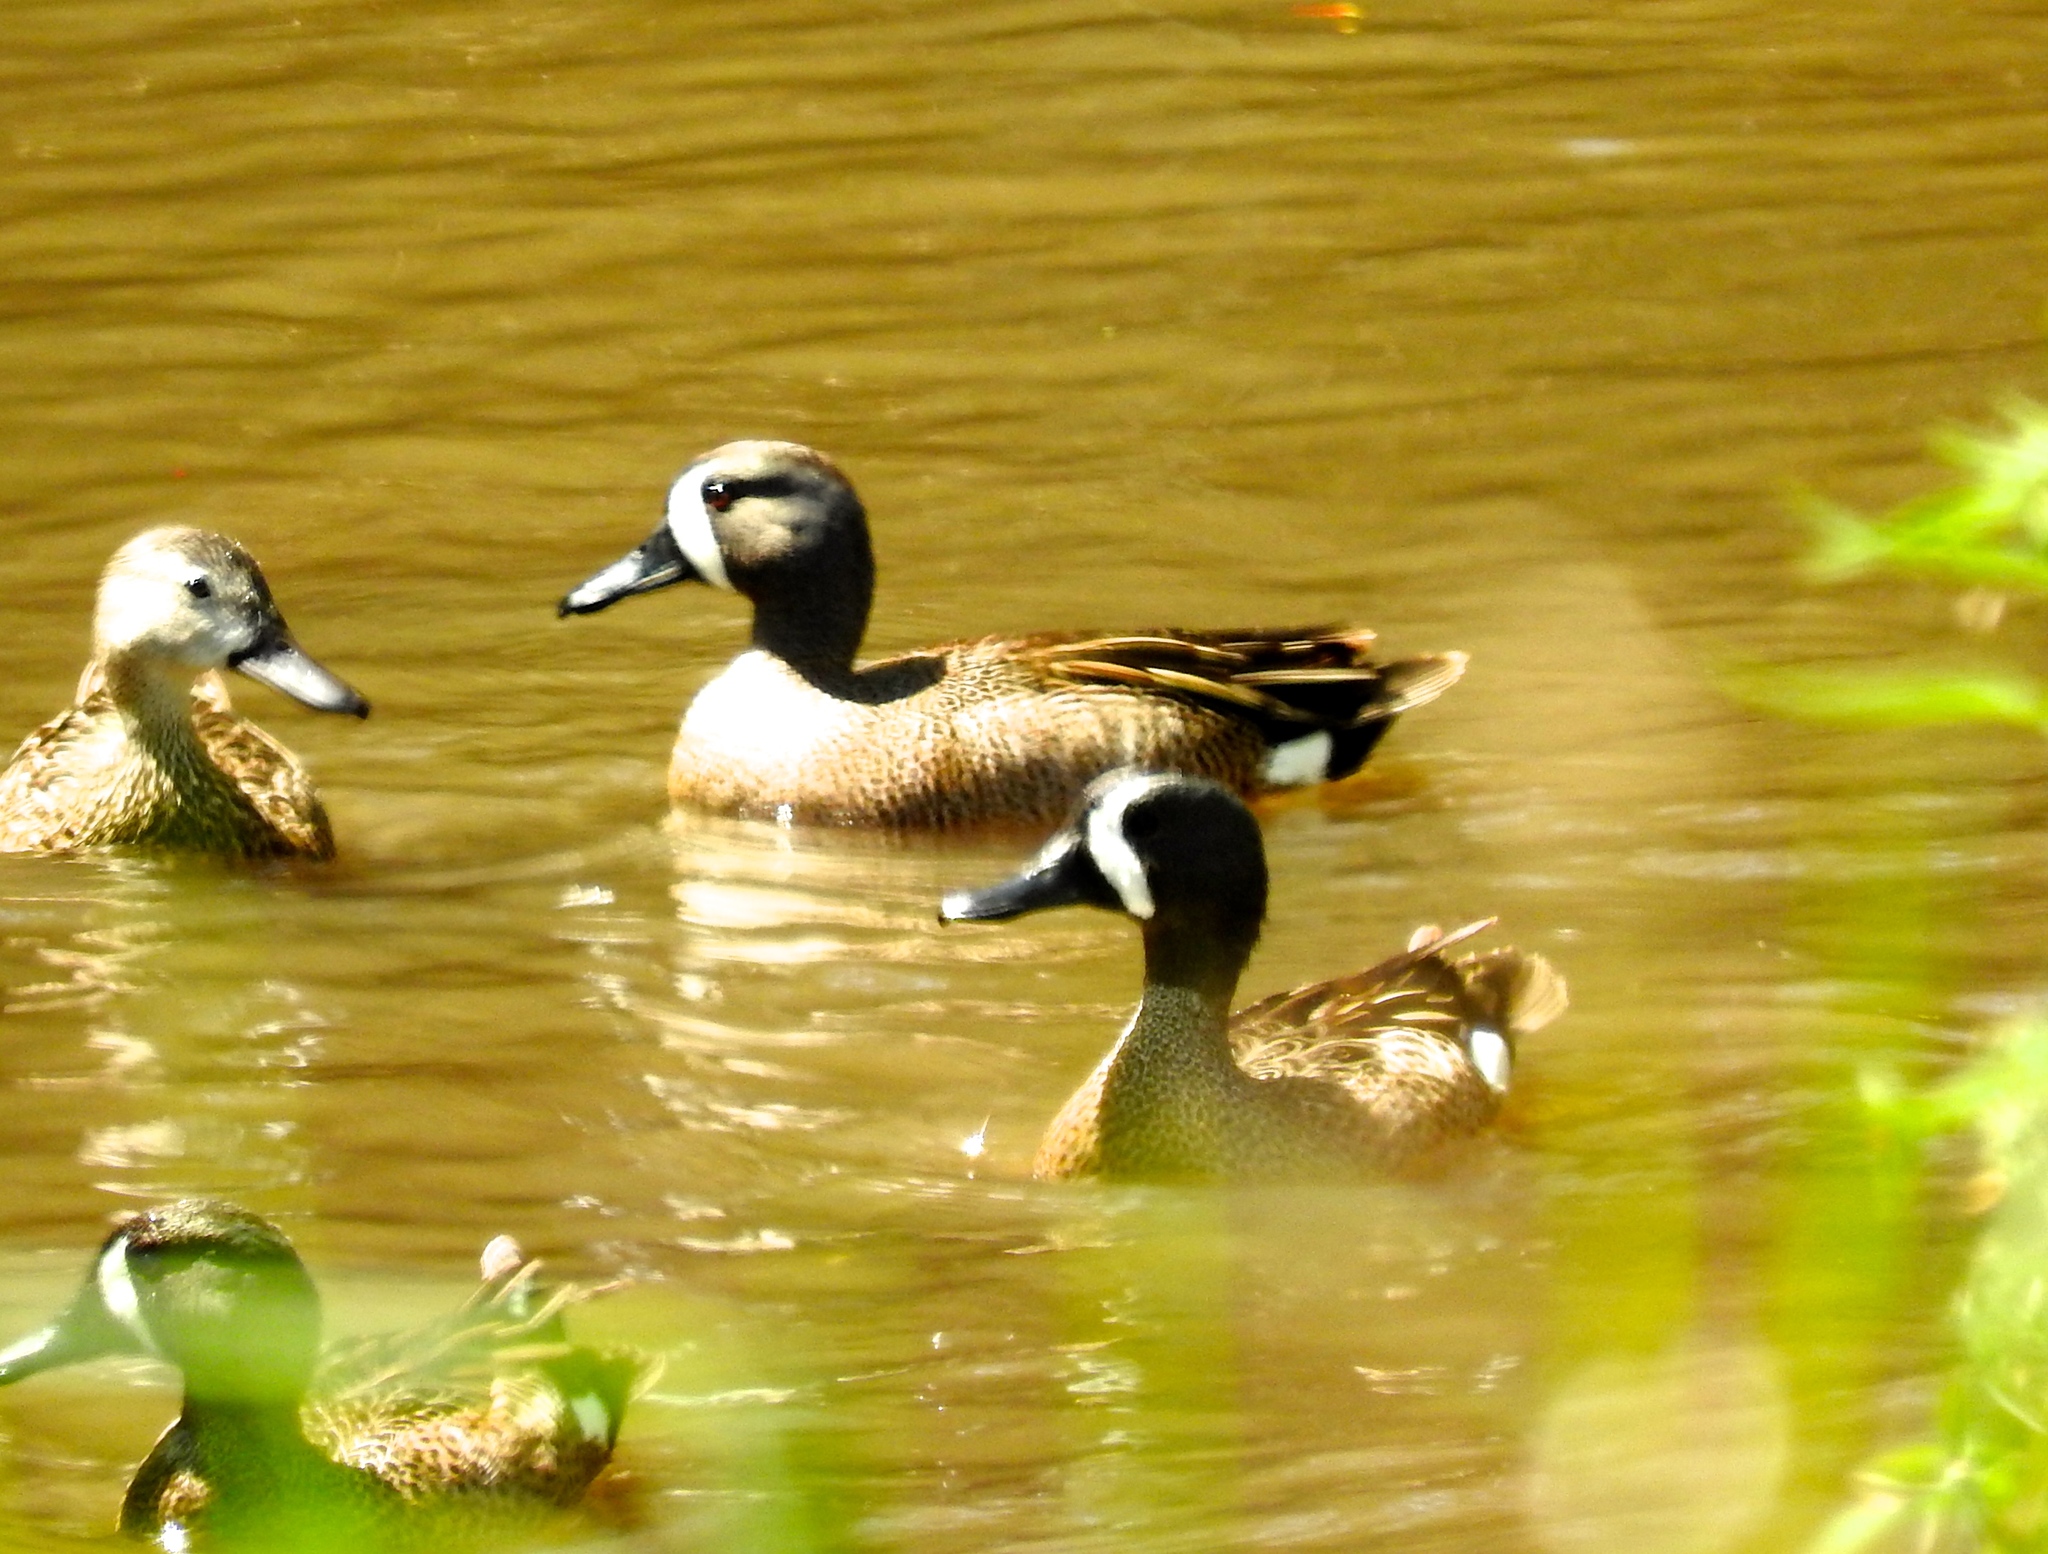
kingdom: Animalia
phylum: Chordata
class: Aves
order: Anseriformes
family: Anatidae
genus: Spatula
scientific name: Spatula discors
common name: Blue-winged teal
